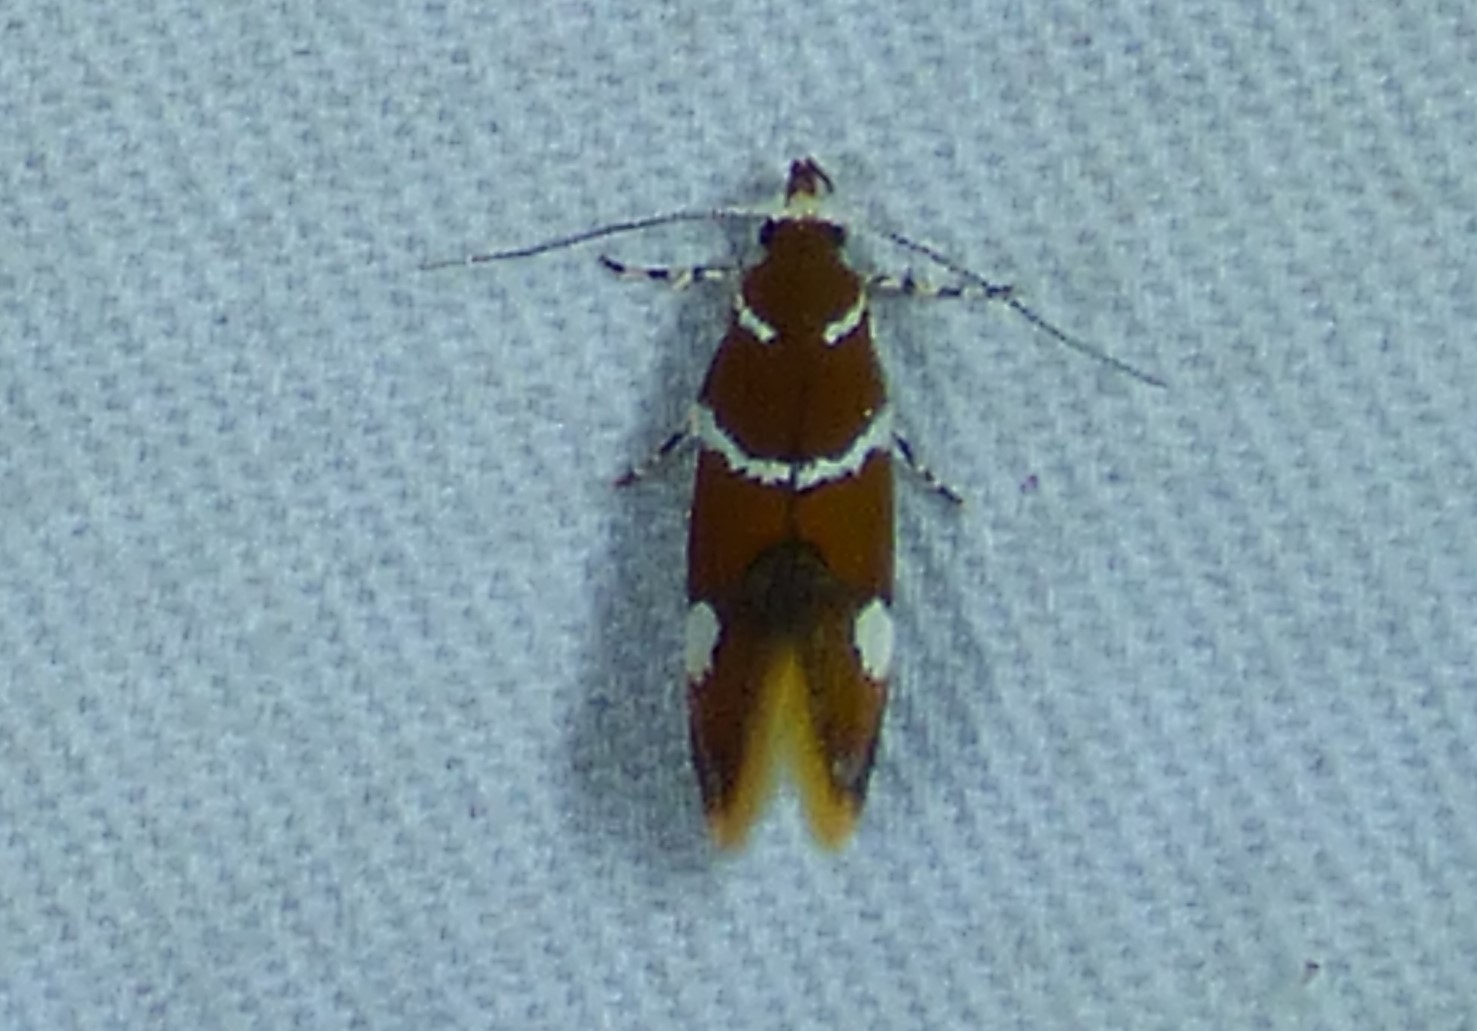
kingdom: Animalia
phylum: Arthropoda
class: Insecta
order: Lepidoptera
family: Oecophoridae
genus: Promalactis
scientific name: Promalactis suzukiella
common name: Moth
